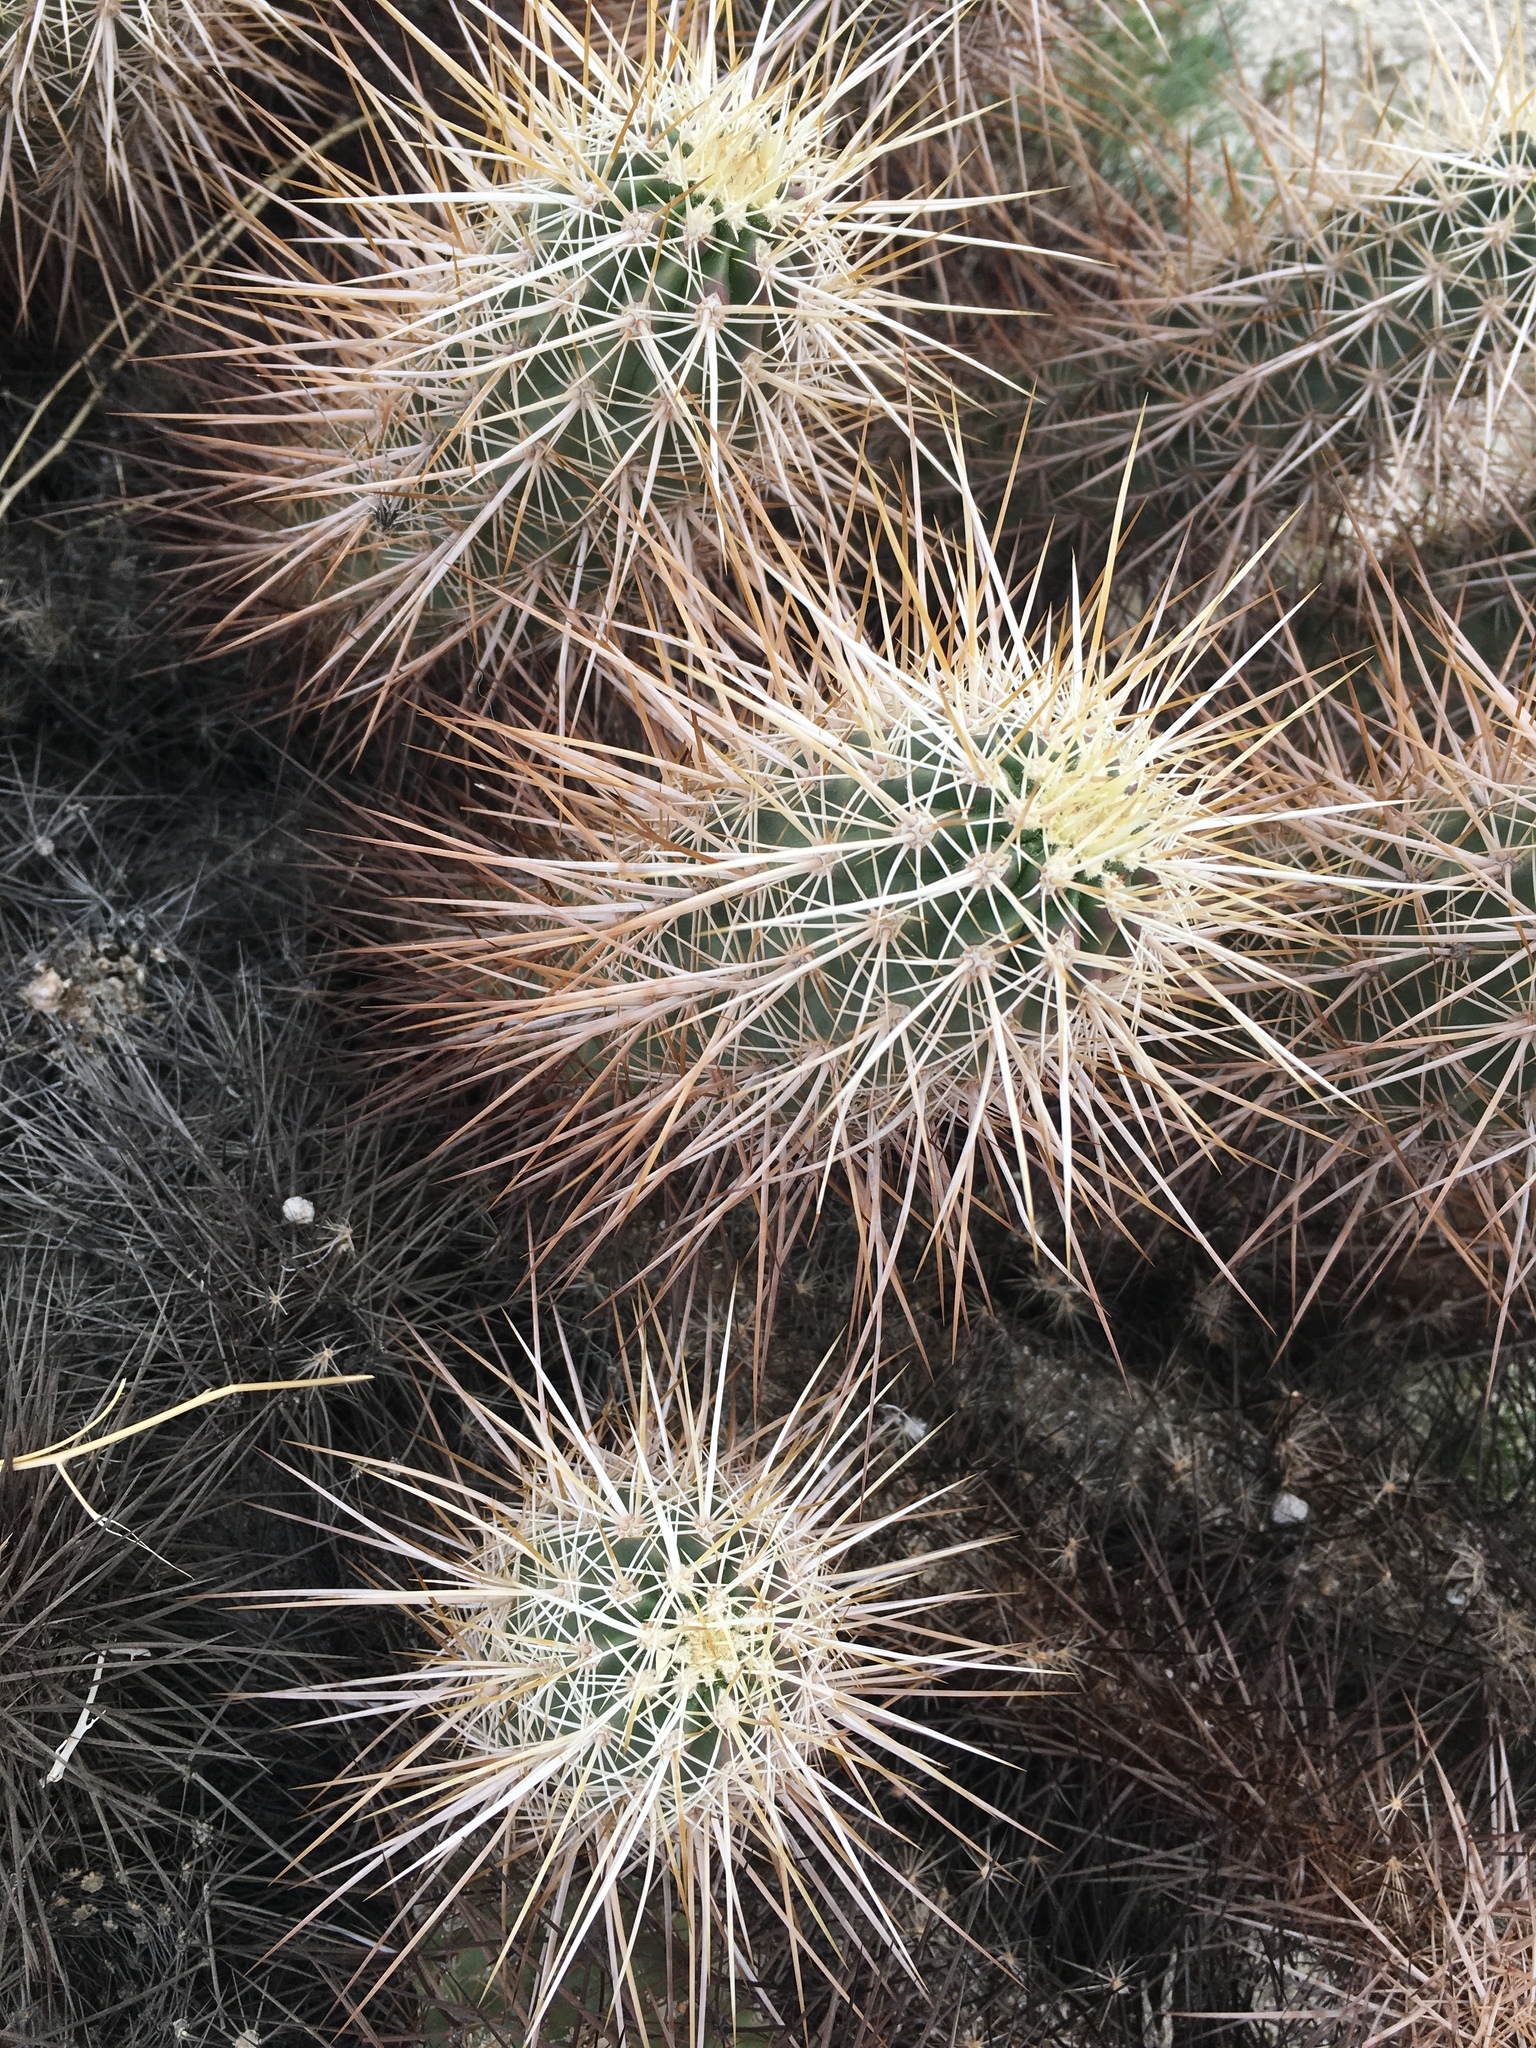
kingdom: Plantae
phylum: Tracheophyta
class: Magnoliopsida
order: Caryophyllales
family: Cactaceae
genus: Echinocereus
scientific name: Echinocereus engelmannii
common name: Engelmann's hedgehog cactus
